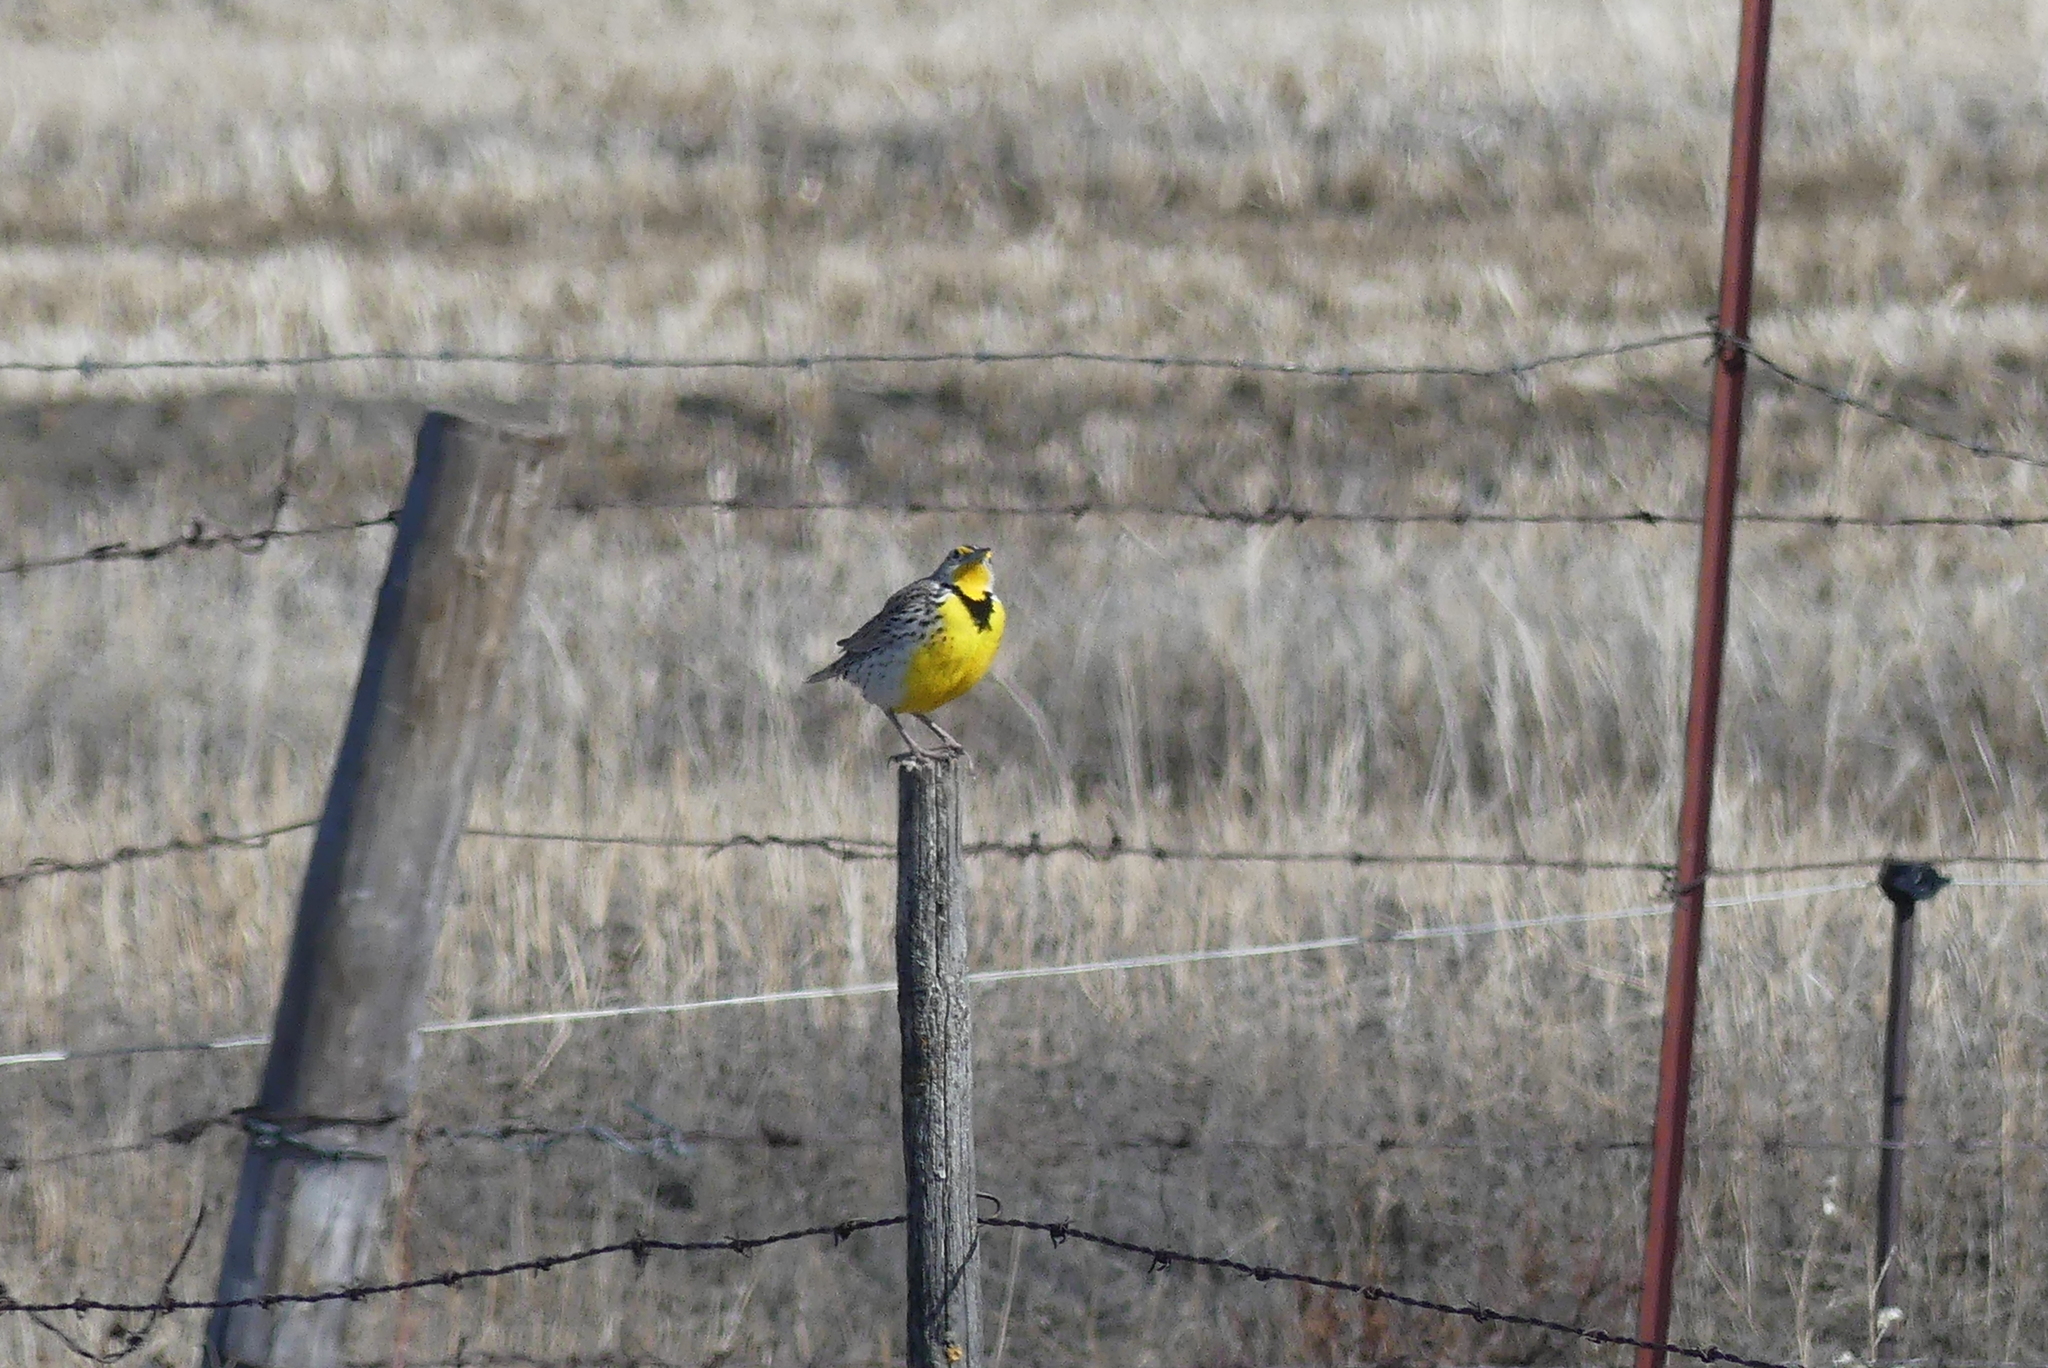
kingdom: Animalia
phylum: Chordata
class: Aves
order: Passeriformes
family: Icteridae
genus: Sturnella
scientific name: Sturnella neglecta
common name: Western meadowlark
